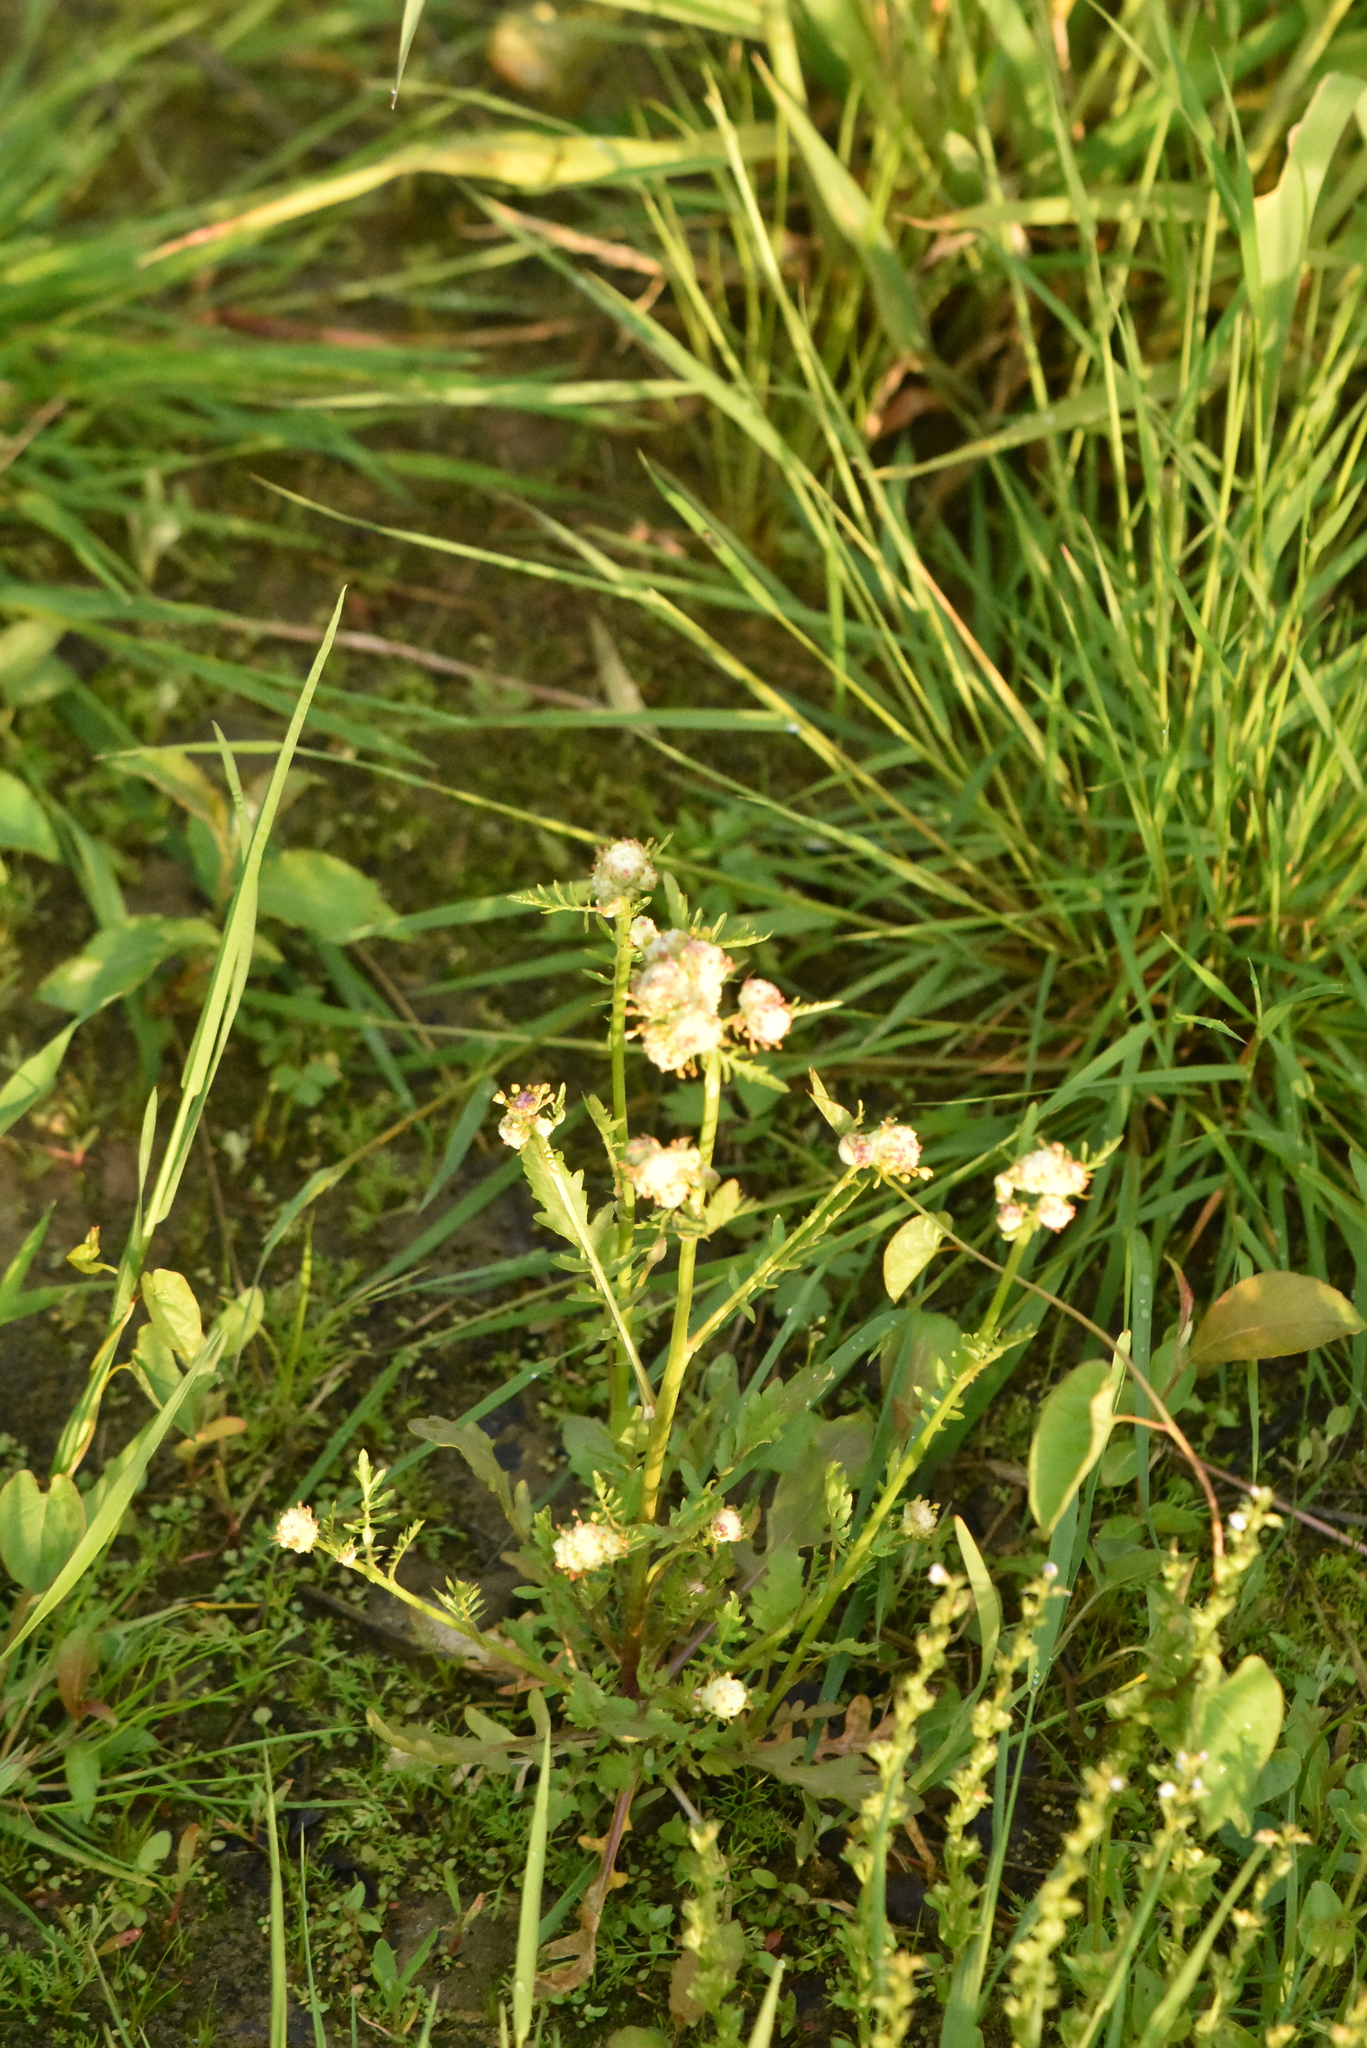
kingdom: Plantae
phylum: Tracheophyta
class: Magnoliopsida
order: Brassicales
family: Brassicaceae
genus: Rorippa
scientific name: Rorippa palustris
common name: Marsh yellow-cress
